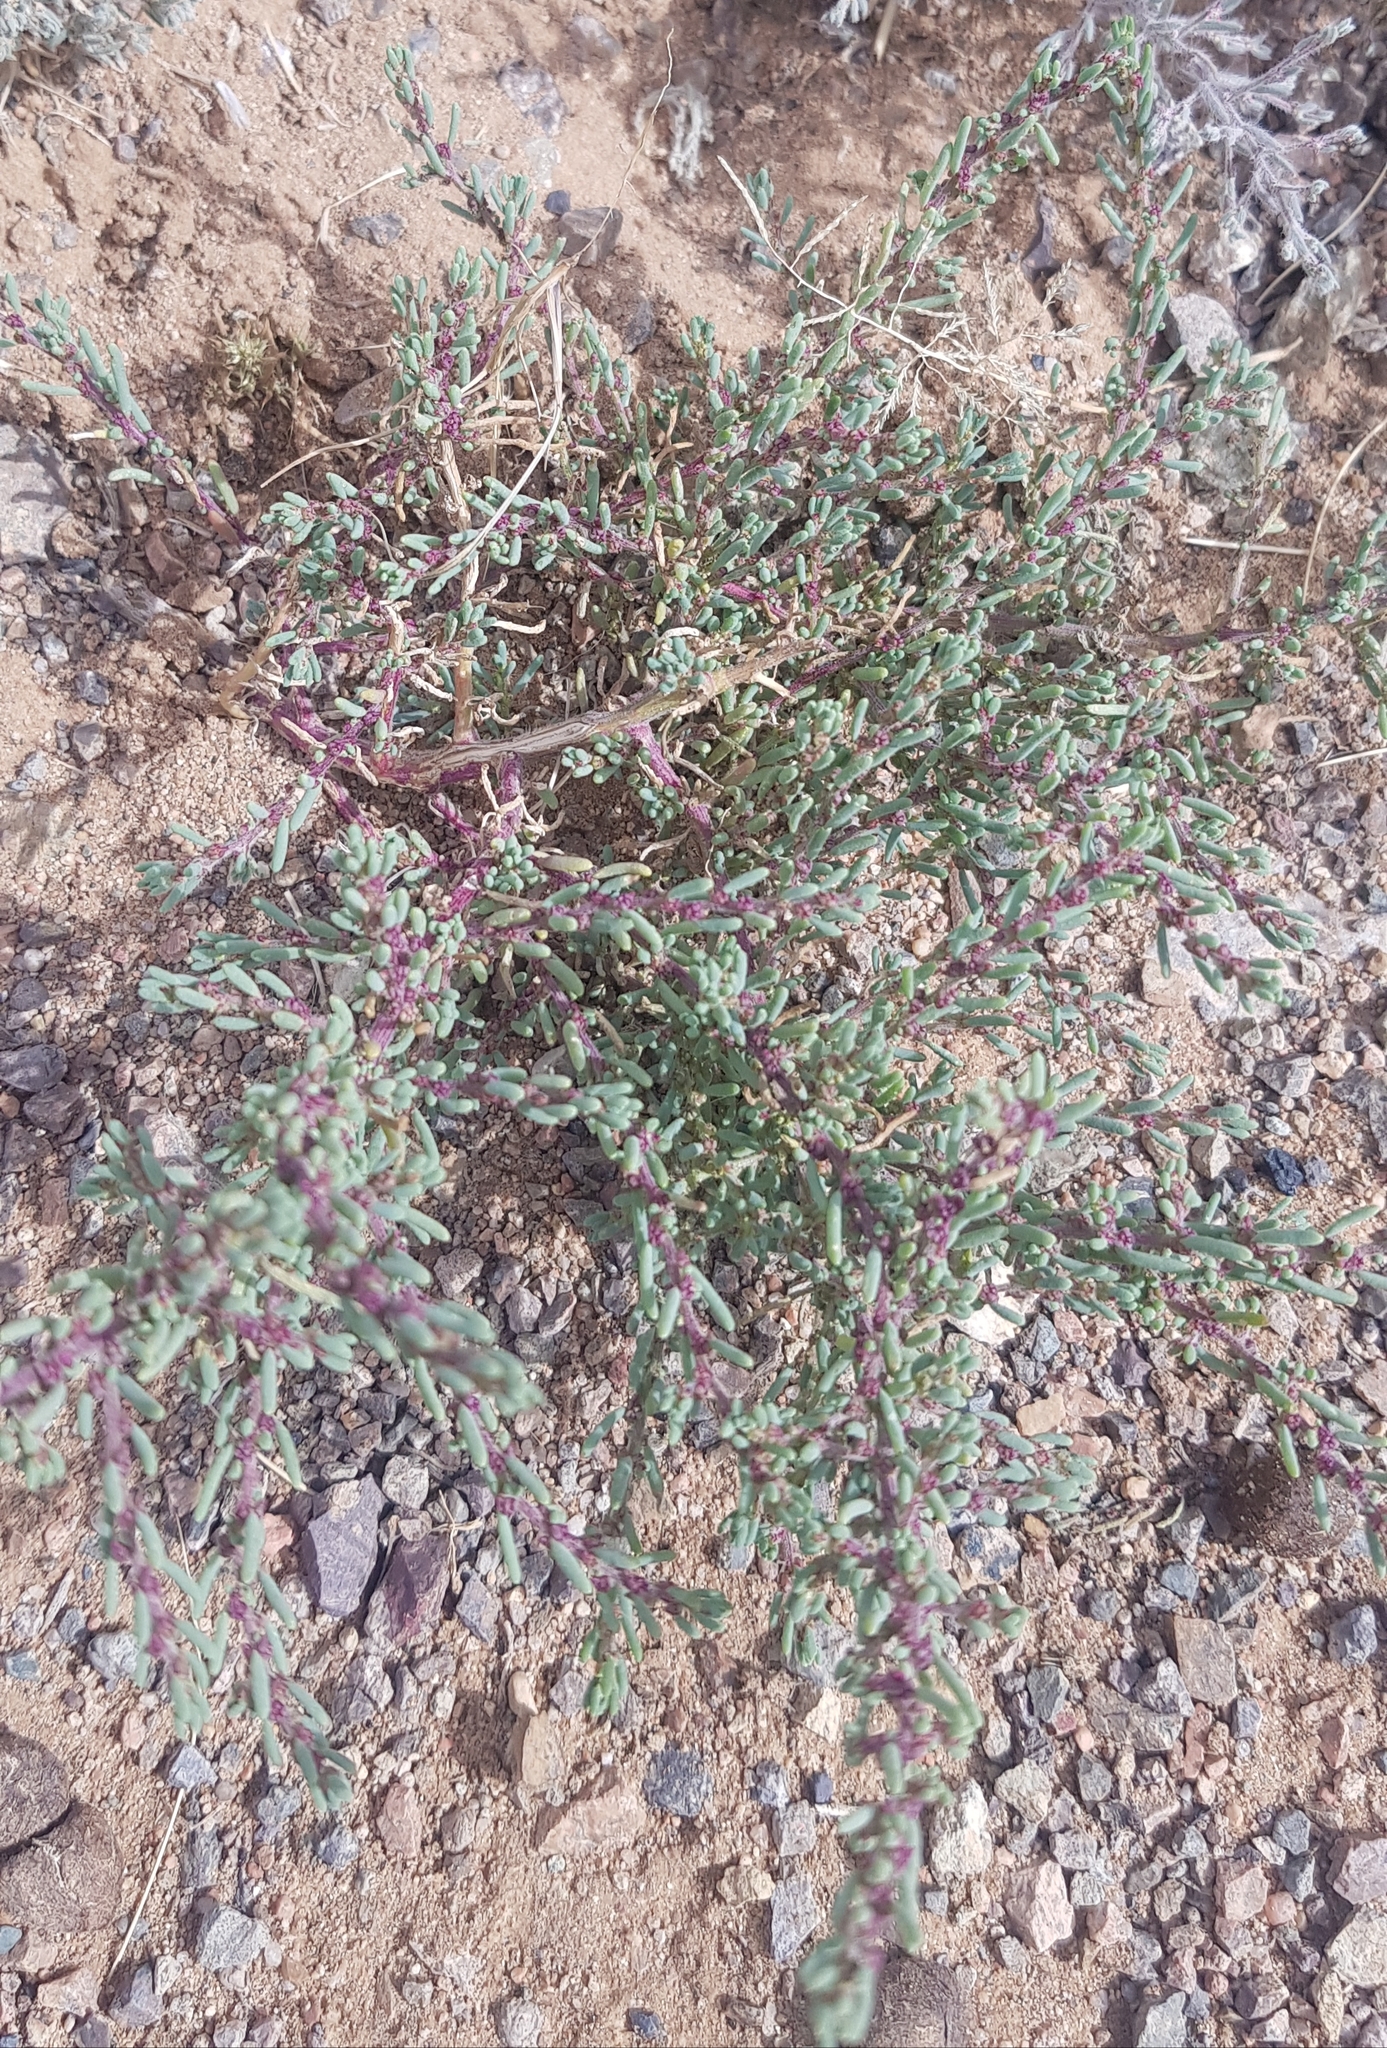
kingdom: Plantae
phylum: Tracheophyta
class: Magnoliopsida
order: Caryophyllales
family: Amaranthaceae
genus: Halogeton
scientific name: Halogeton glomeratus
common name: Saltlover
